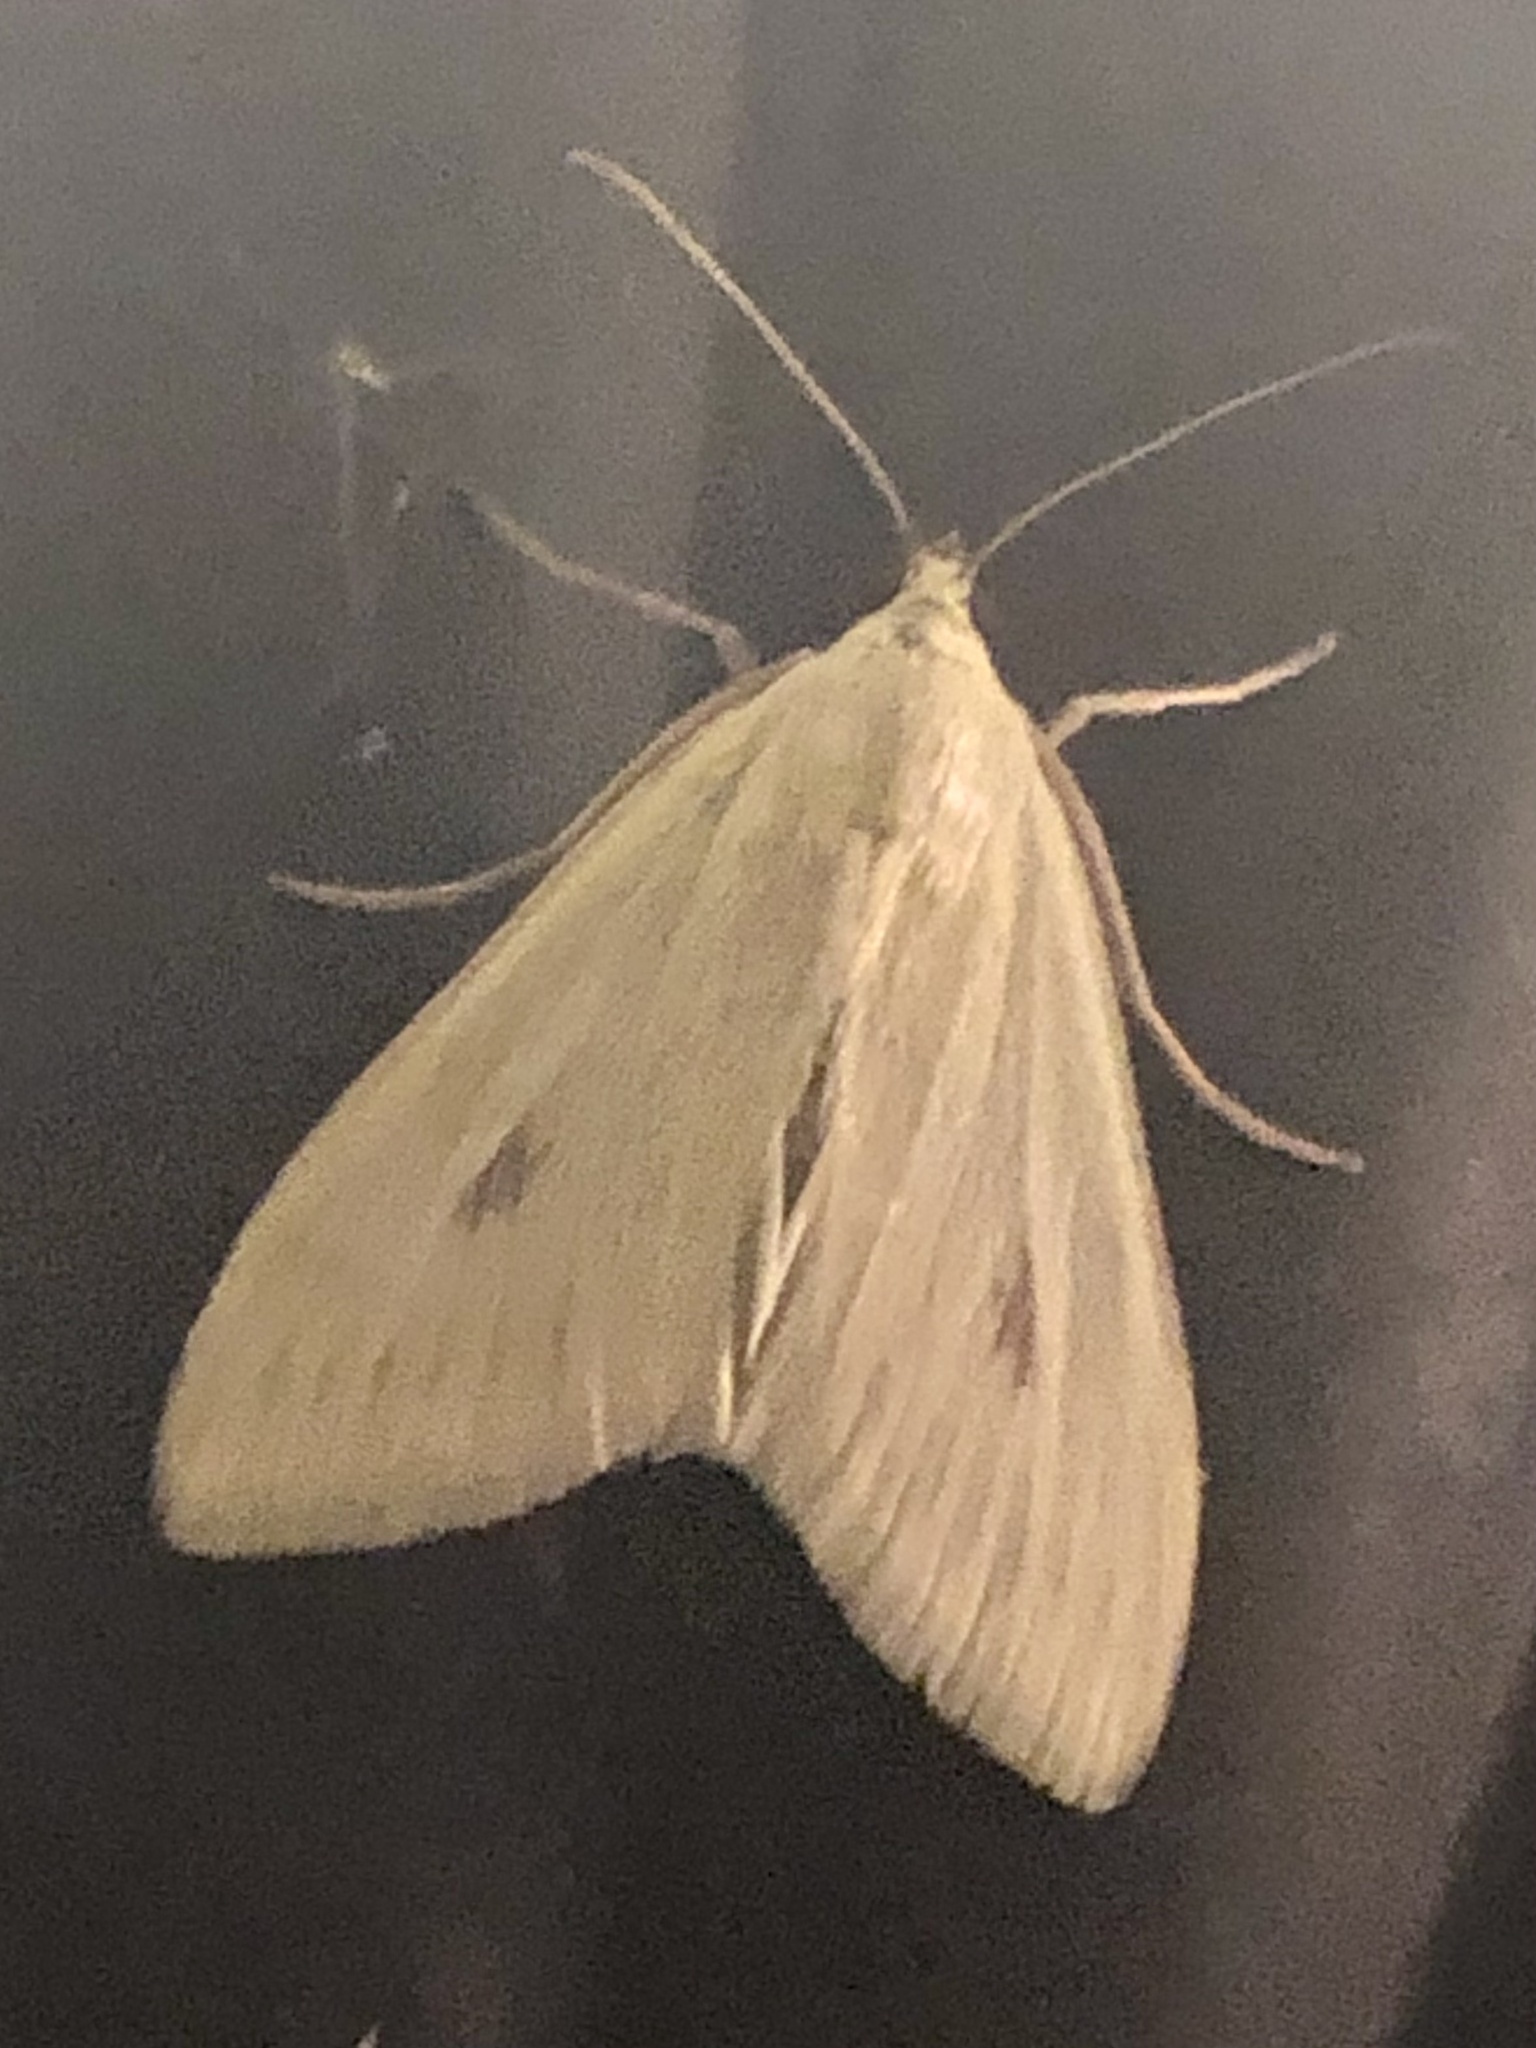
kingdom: Animalia
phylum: Arthropoda
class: Insecta
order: Lepidoptera
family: Crambidae
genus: Sitochroa
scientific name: Sitochroa palealis
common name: Greenish-yellow sitochroa moth
